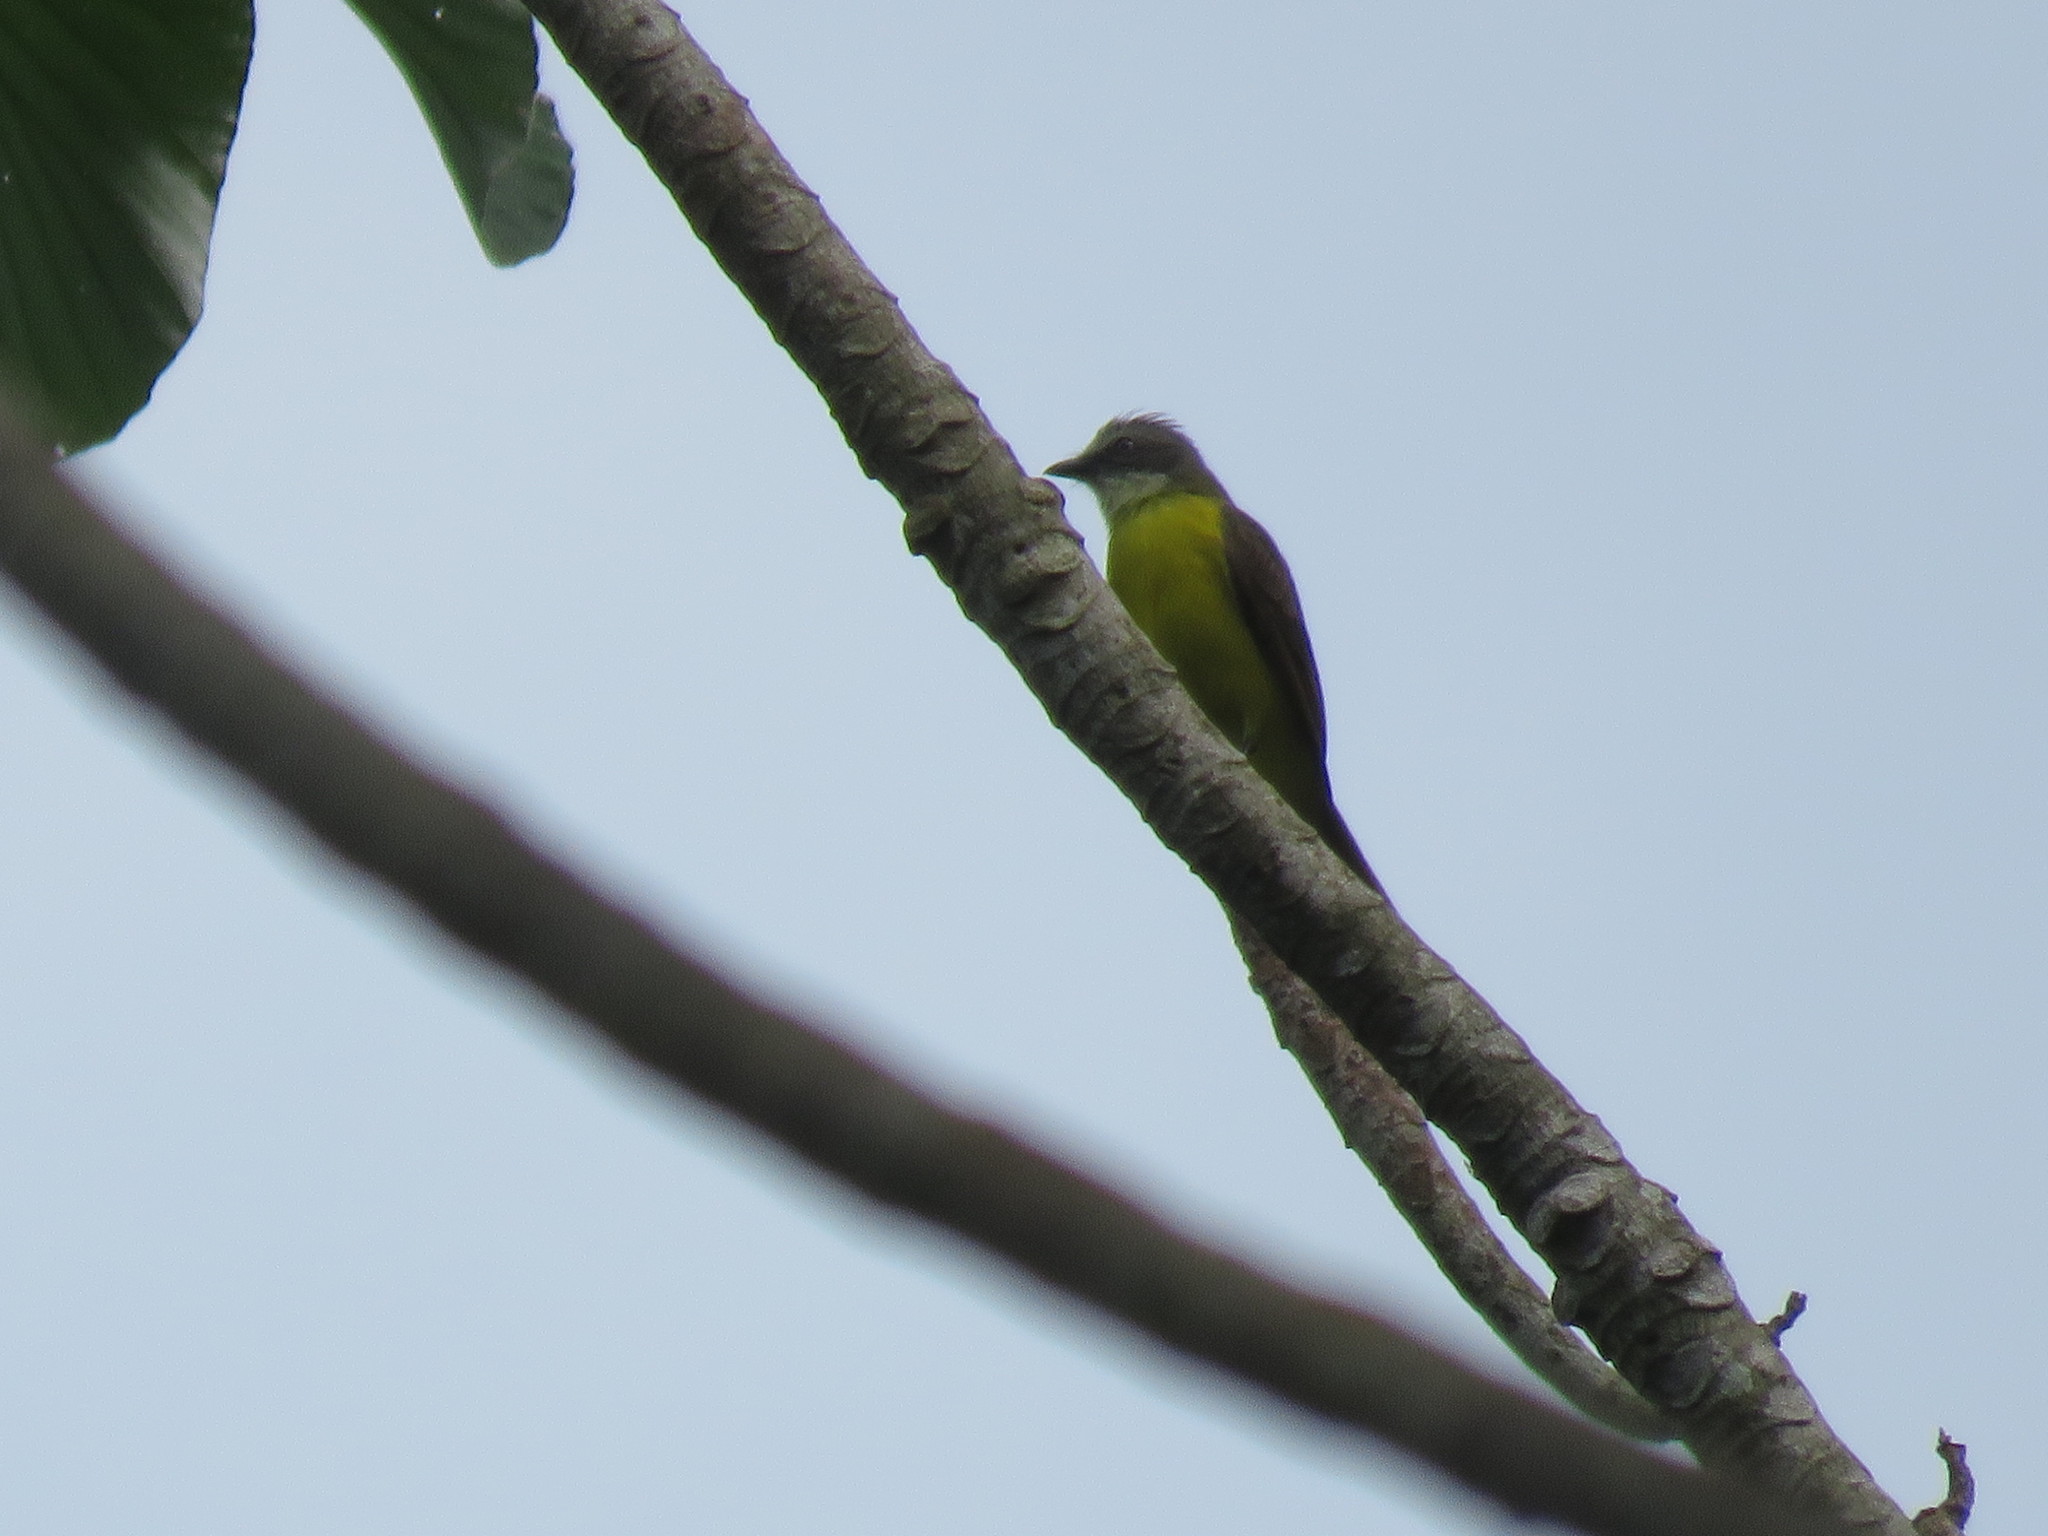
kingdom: Animalia
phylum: Chordata
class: Aves
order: Passeriformes
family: Tyrannidae
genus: Myiozetetes
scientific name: Myiozetetes granadensis
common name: Gray-capped flycatcher
